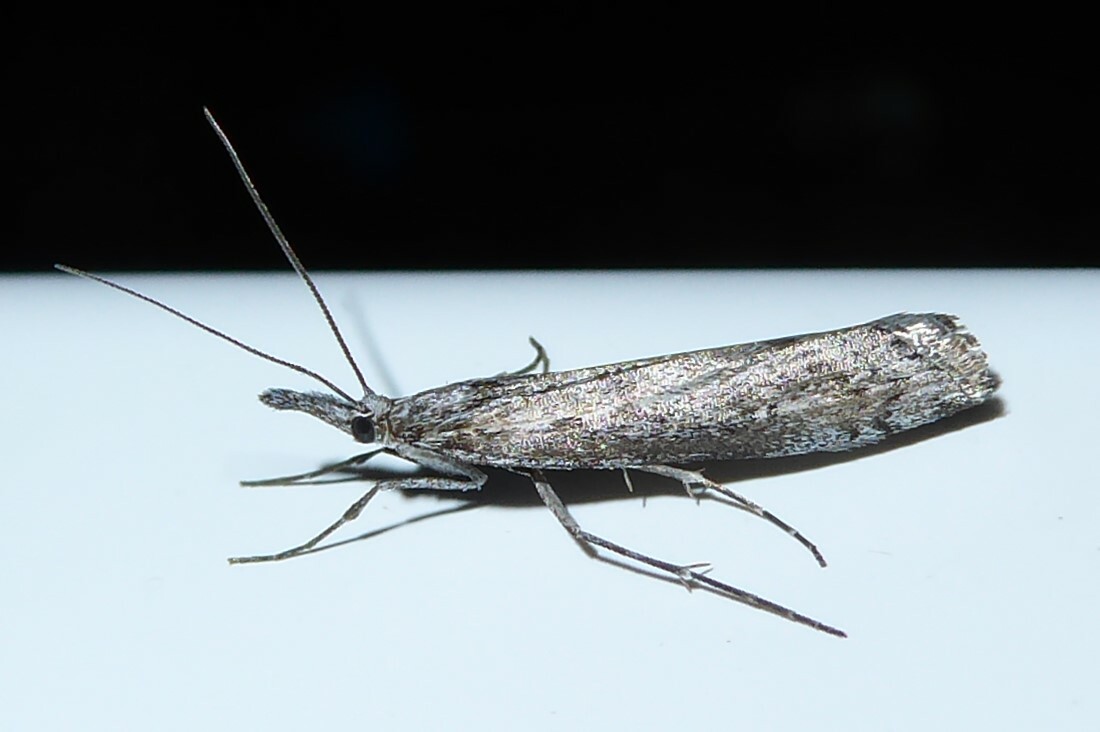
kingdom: Animalia
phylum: Arthropoda
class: Insecta
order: Lepidoptera
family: Crambidae
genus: Orocrambus
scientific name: Orocrambus cyclopicus
